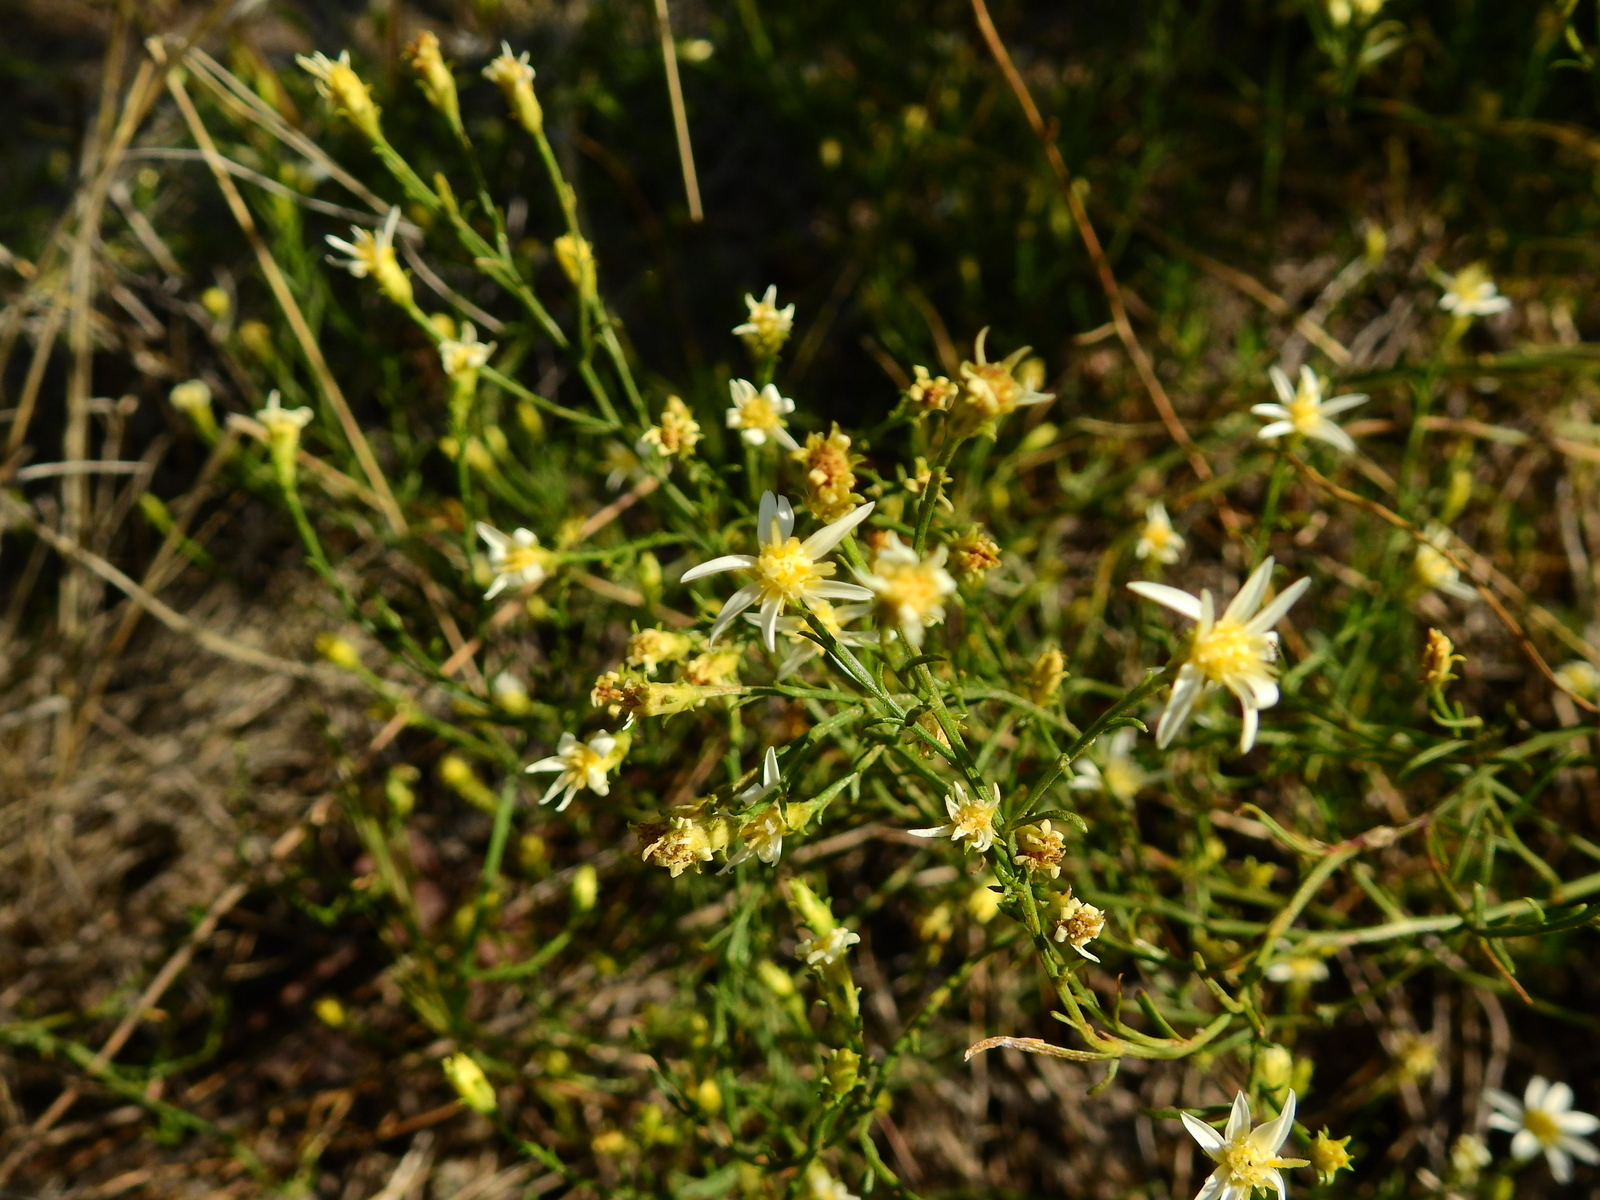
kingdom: Plantae
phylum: Tracheophyta
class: Magnoliopsida
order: Asterales
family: Asteraceae
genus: Gutierrezia
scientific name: Gutierrezia gilliesii
